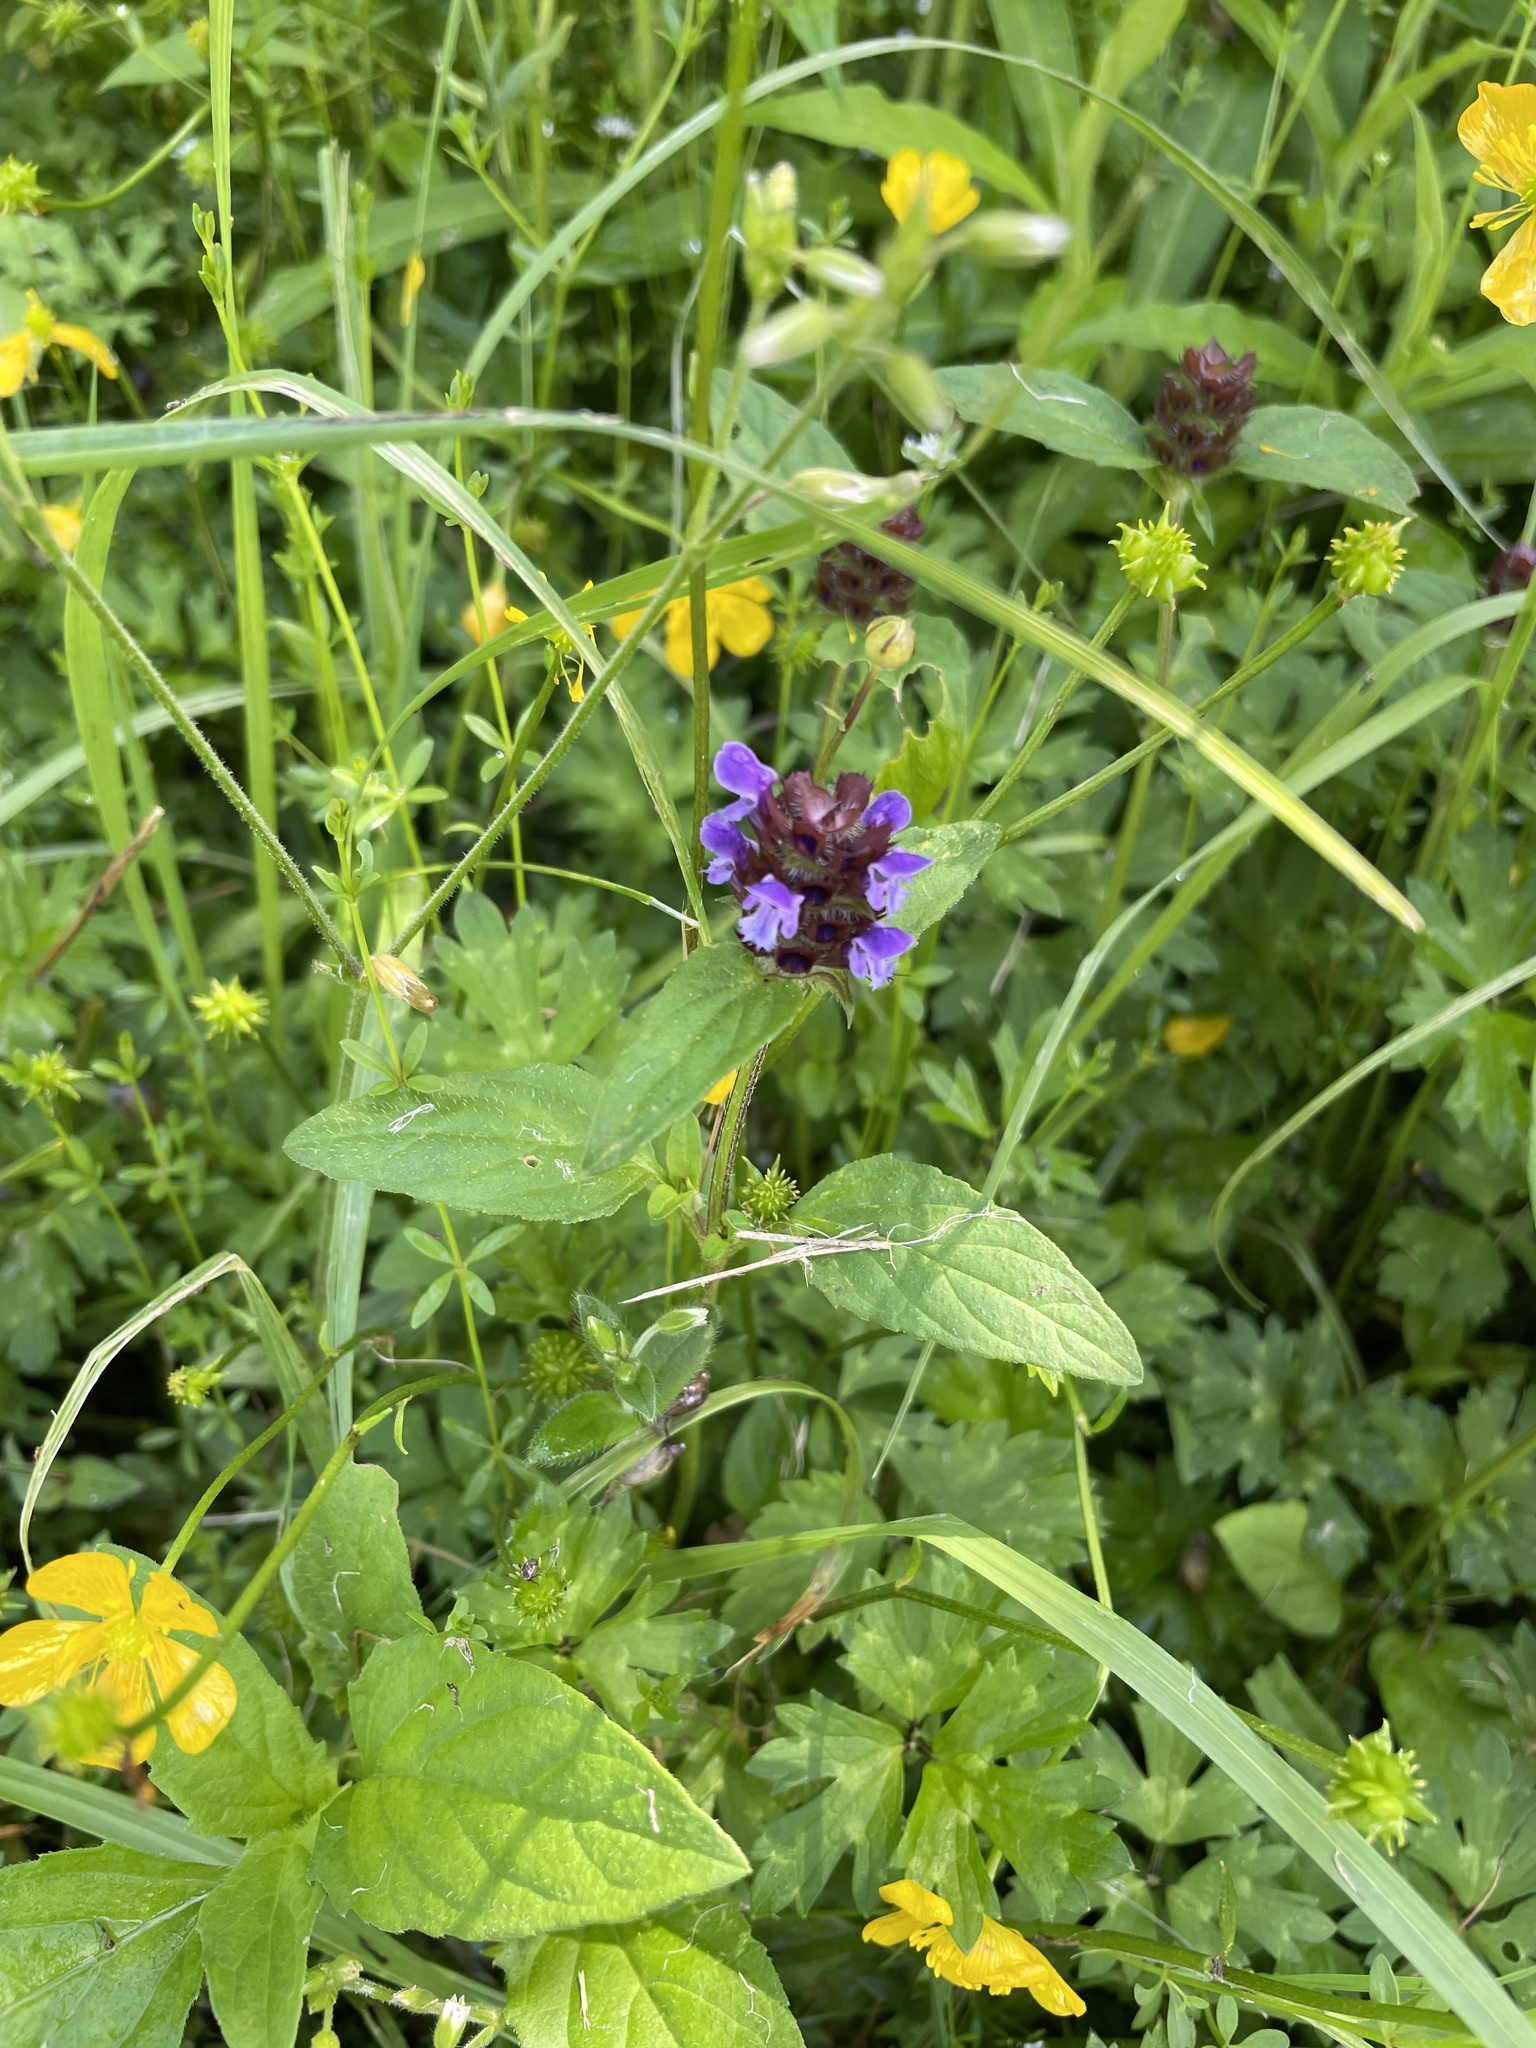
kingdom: Plantae
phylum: Tracheophyta
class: Magnoliopsida
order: Lamiales
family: Lamiaceae
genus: Prunella
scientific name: Prunella vulgaris
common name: Heal-all
